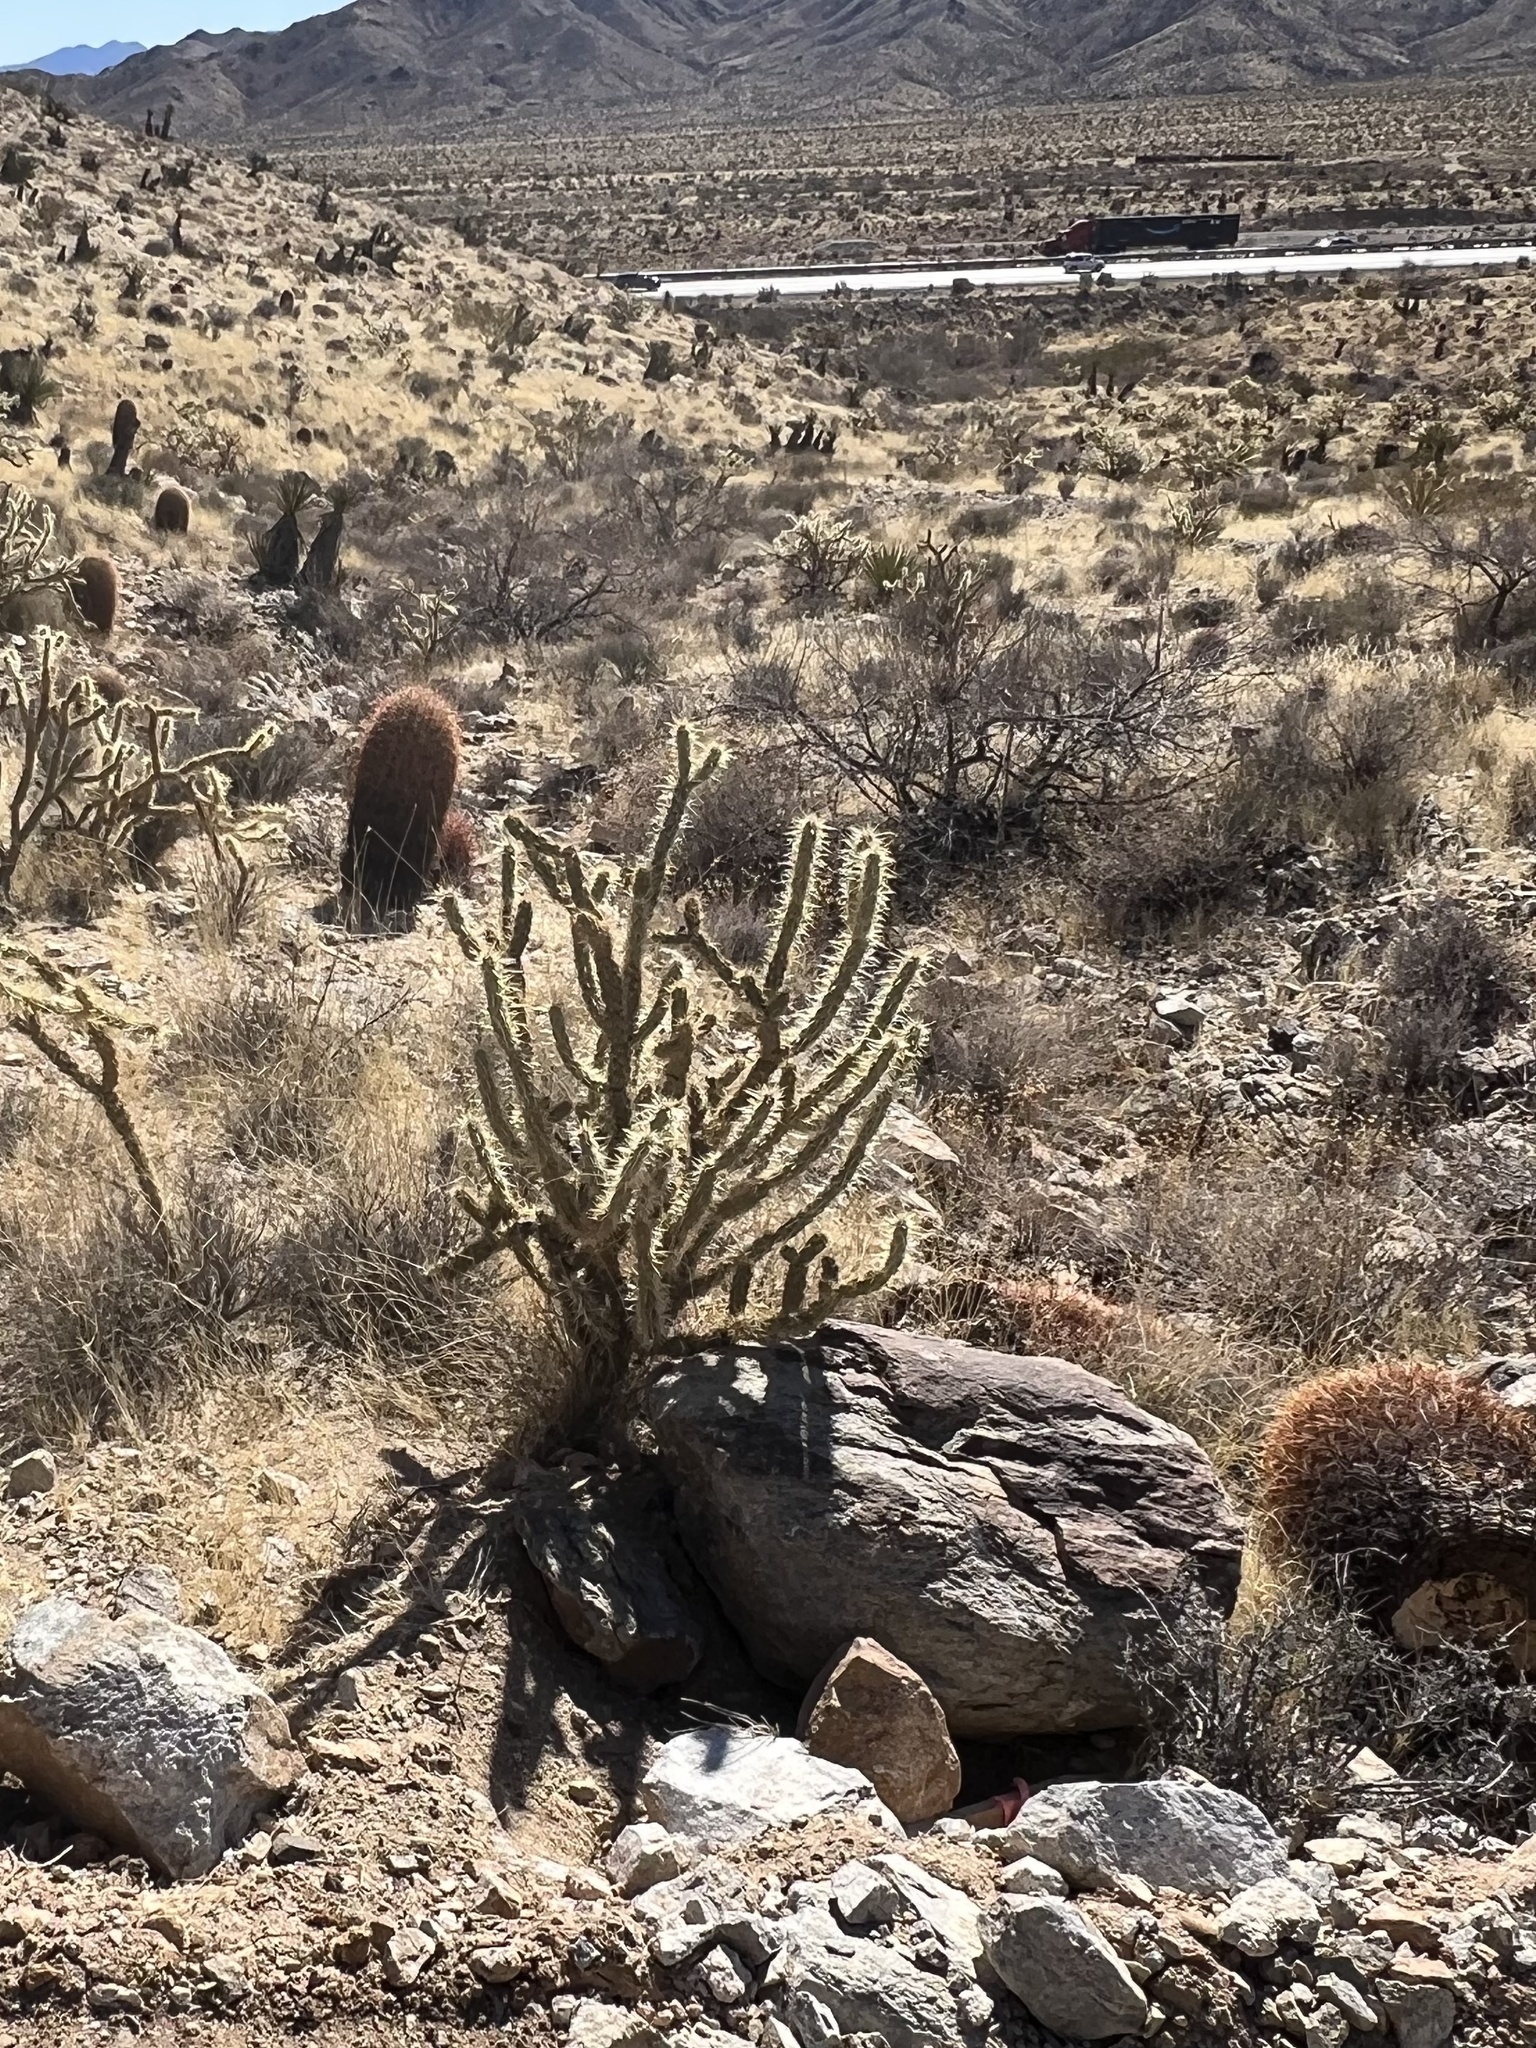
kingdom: Plantae
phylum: Tracheophyta
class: Magnoliopsida
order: Caryophyllales
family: Cactaceae
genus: Cylindropuntia
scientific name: Cylindropuntia acanthocarpa
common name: Buckhorn cholla
